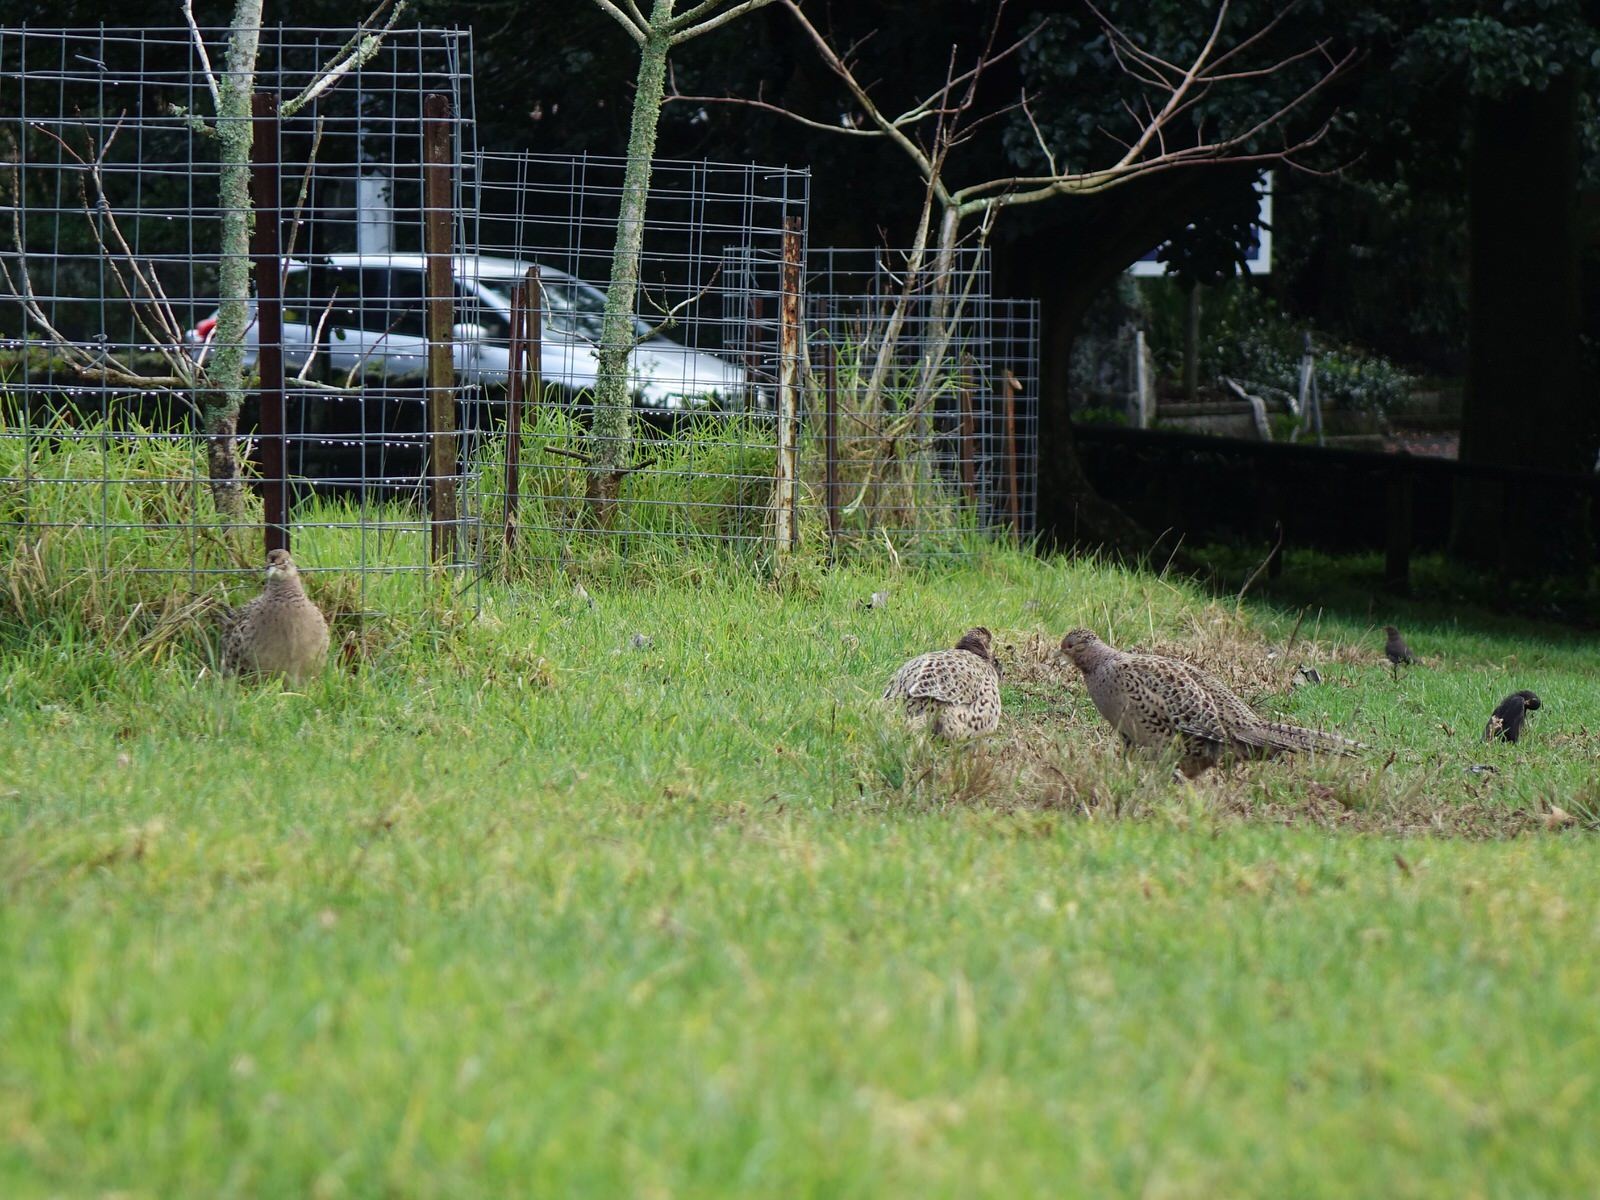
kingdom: Animalia
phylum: Chordata
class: Aves
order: Galliformes
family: Phasianidae
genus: Phasianus
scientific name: Phasianus colchicus
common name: Common pheasant
